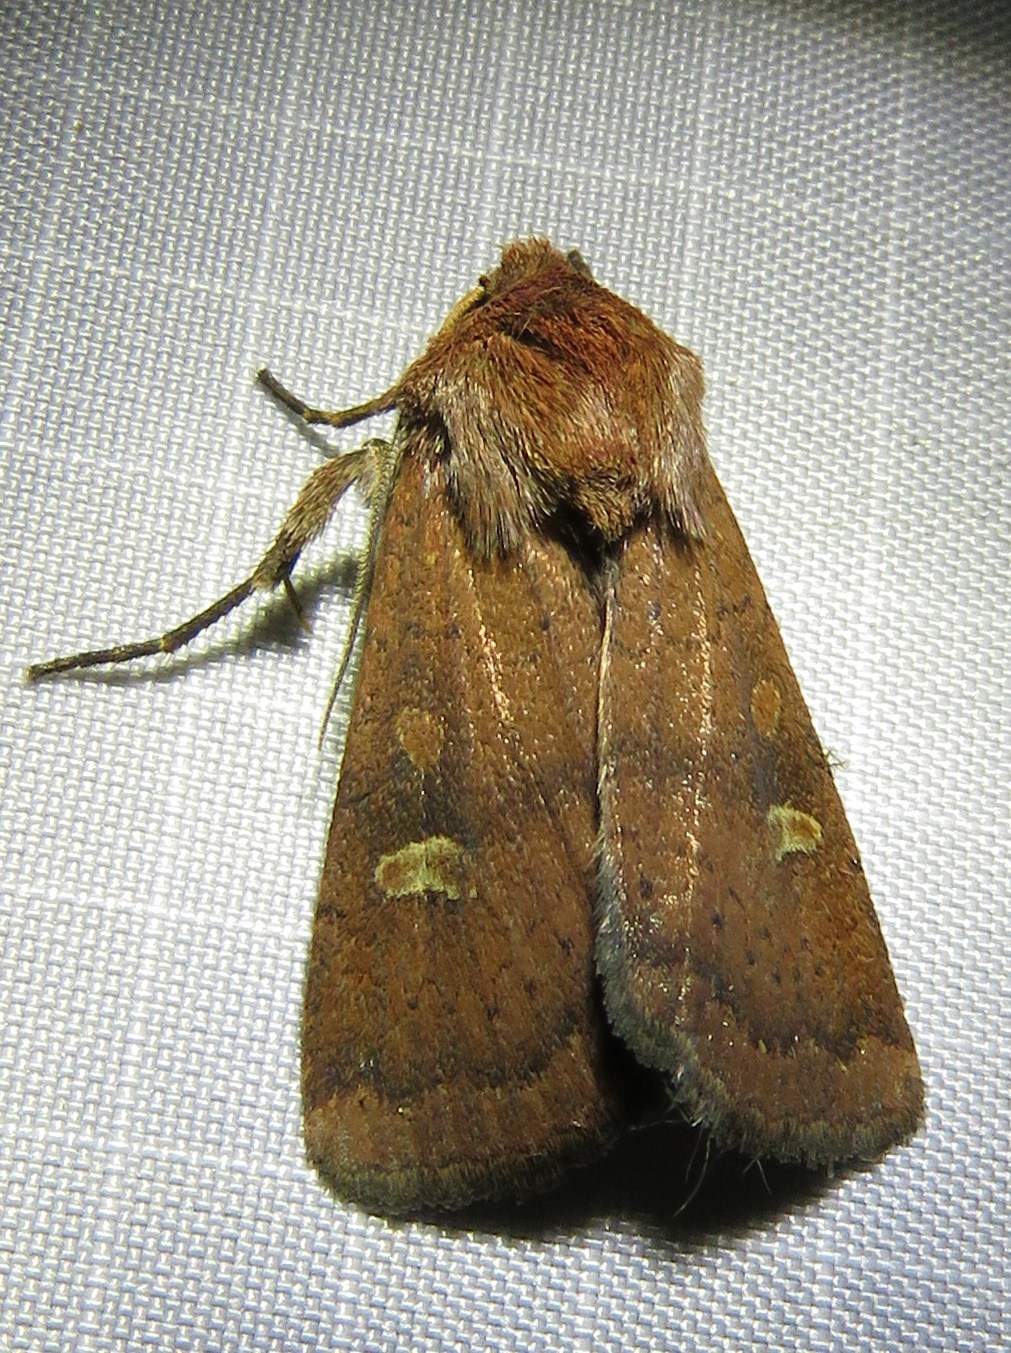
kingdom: Animalia
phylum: Arthropoda
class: Insecta
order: Lepidoptera
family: Noctuidae
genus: Xestia
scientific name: Xestia xanthographa
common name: Square-spot rustic
